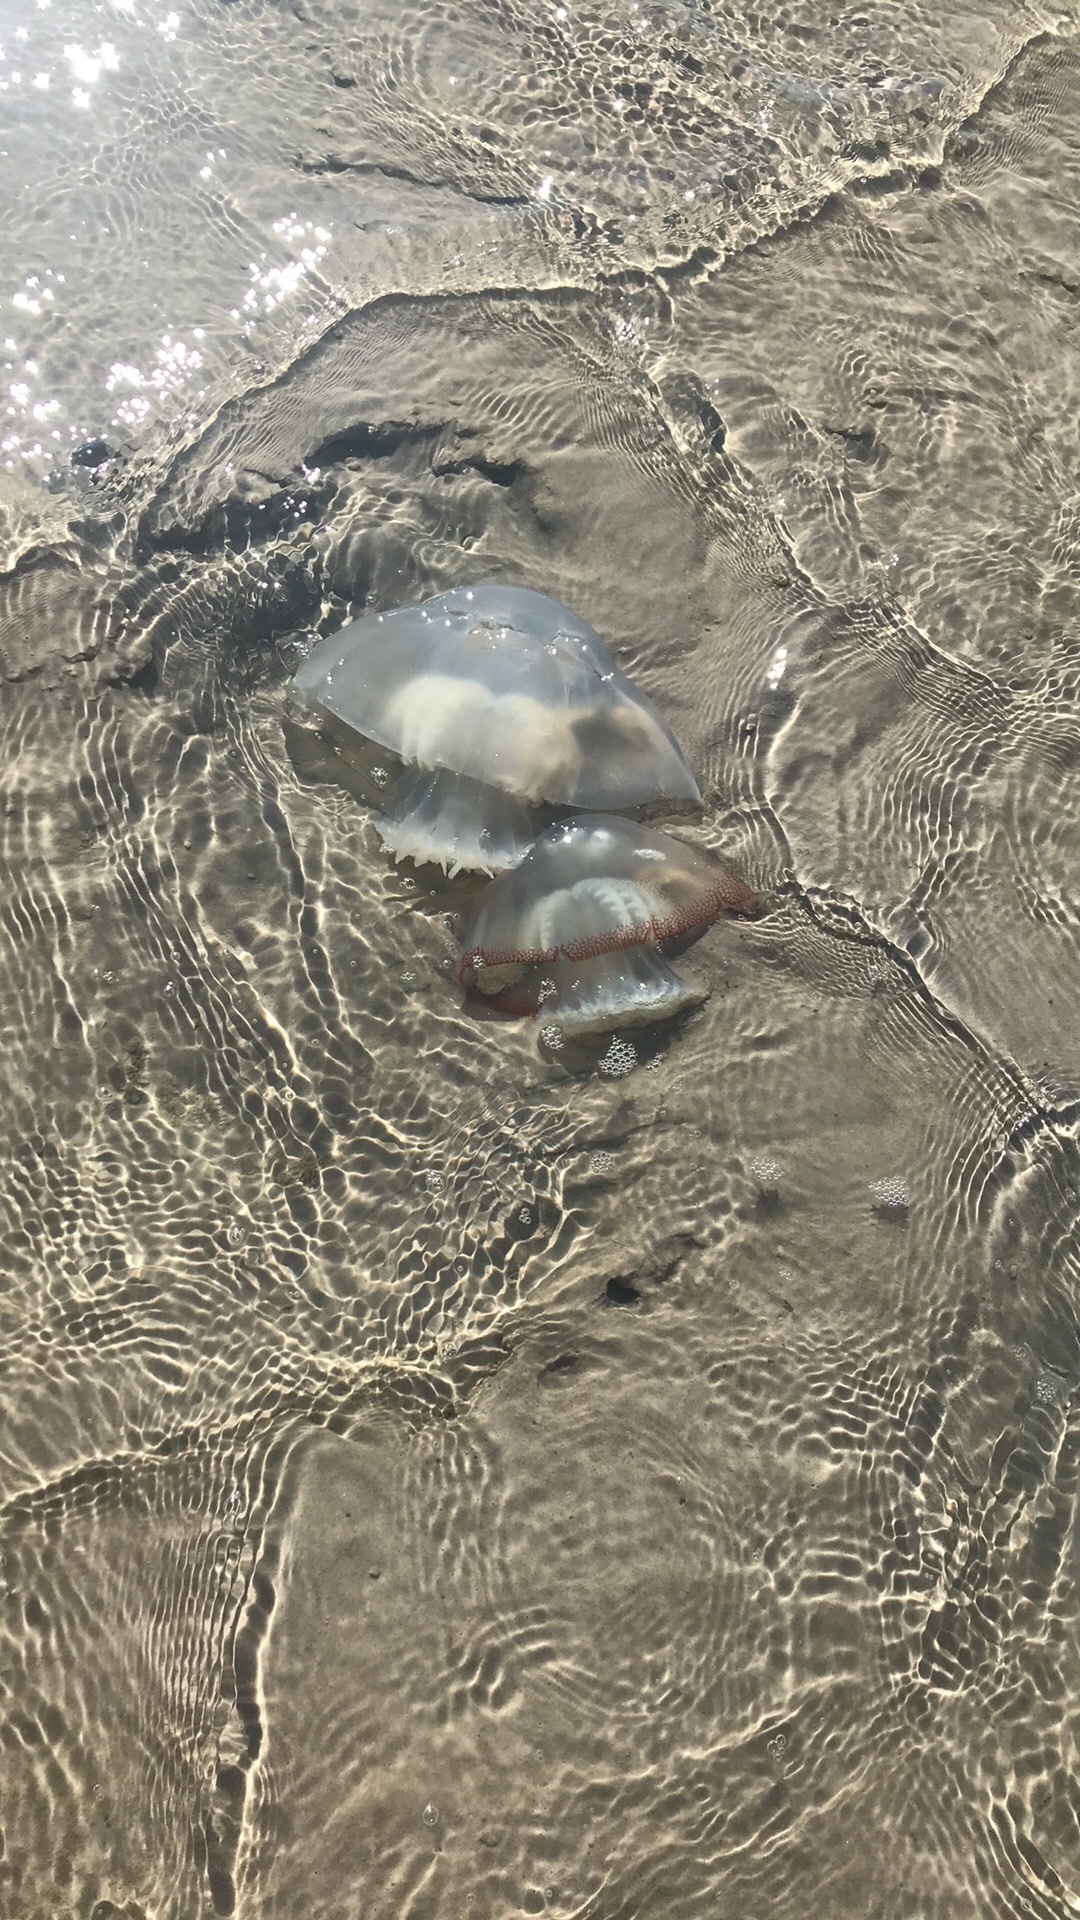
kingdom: Animalia
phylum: Cnidaria
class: Scyphozoa
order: Rhizostomeae
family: Stomolophidae
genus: Stomolophus
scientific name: Stomolophus meleagris
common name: Cabbagehead
